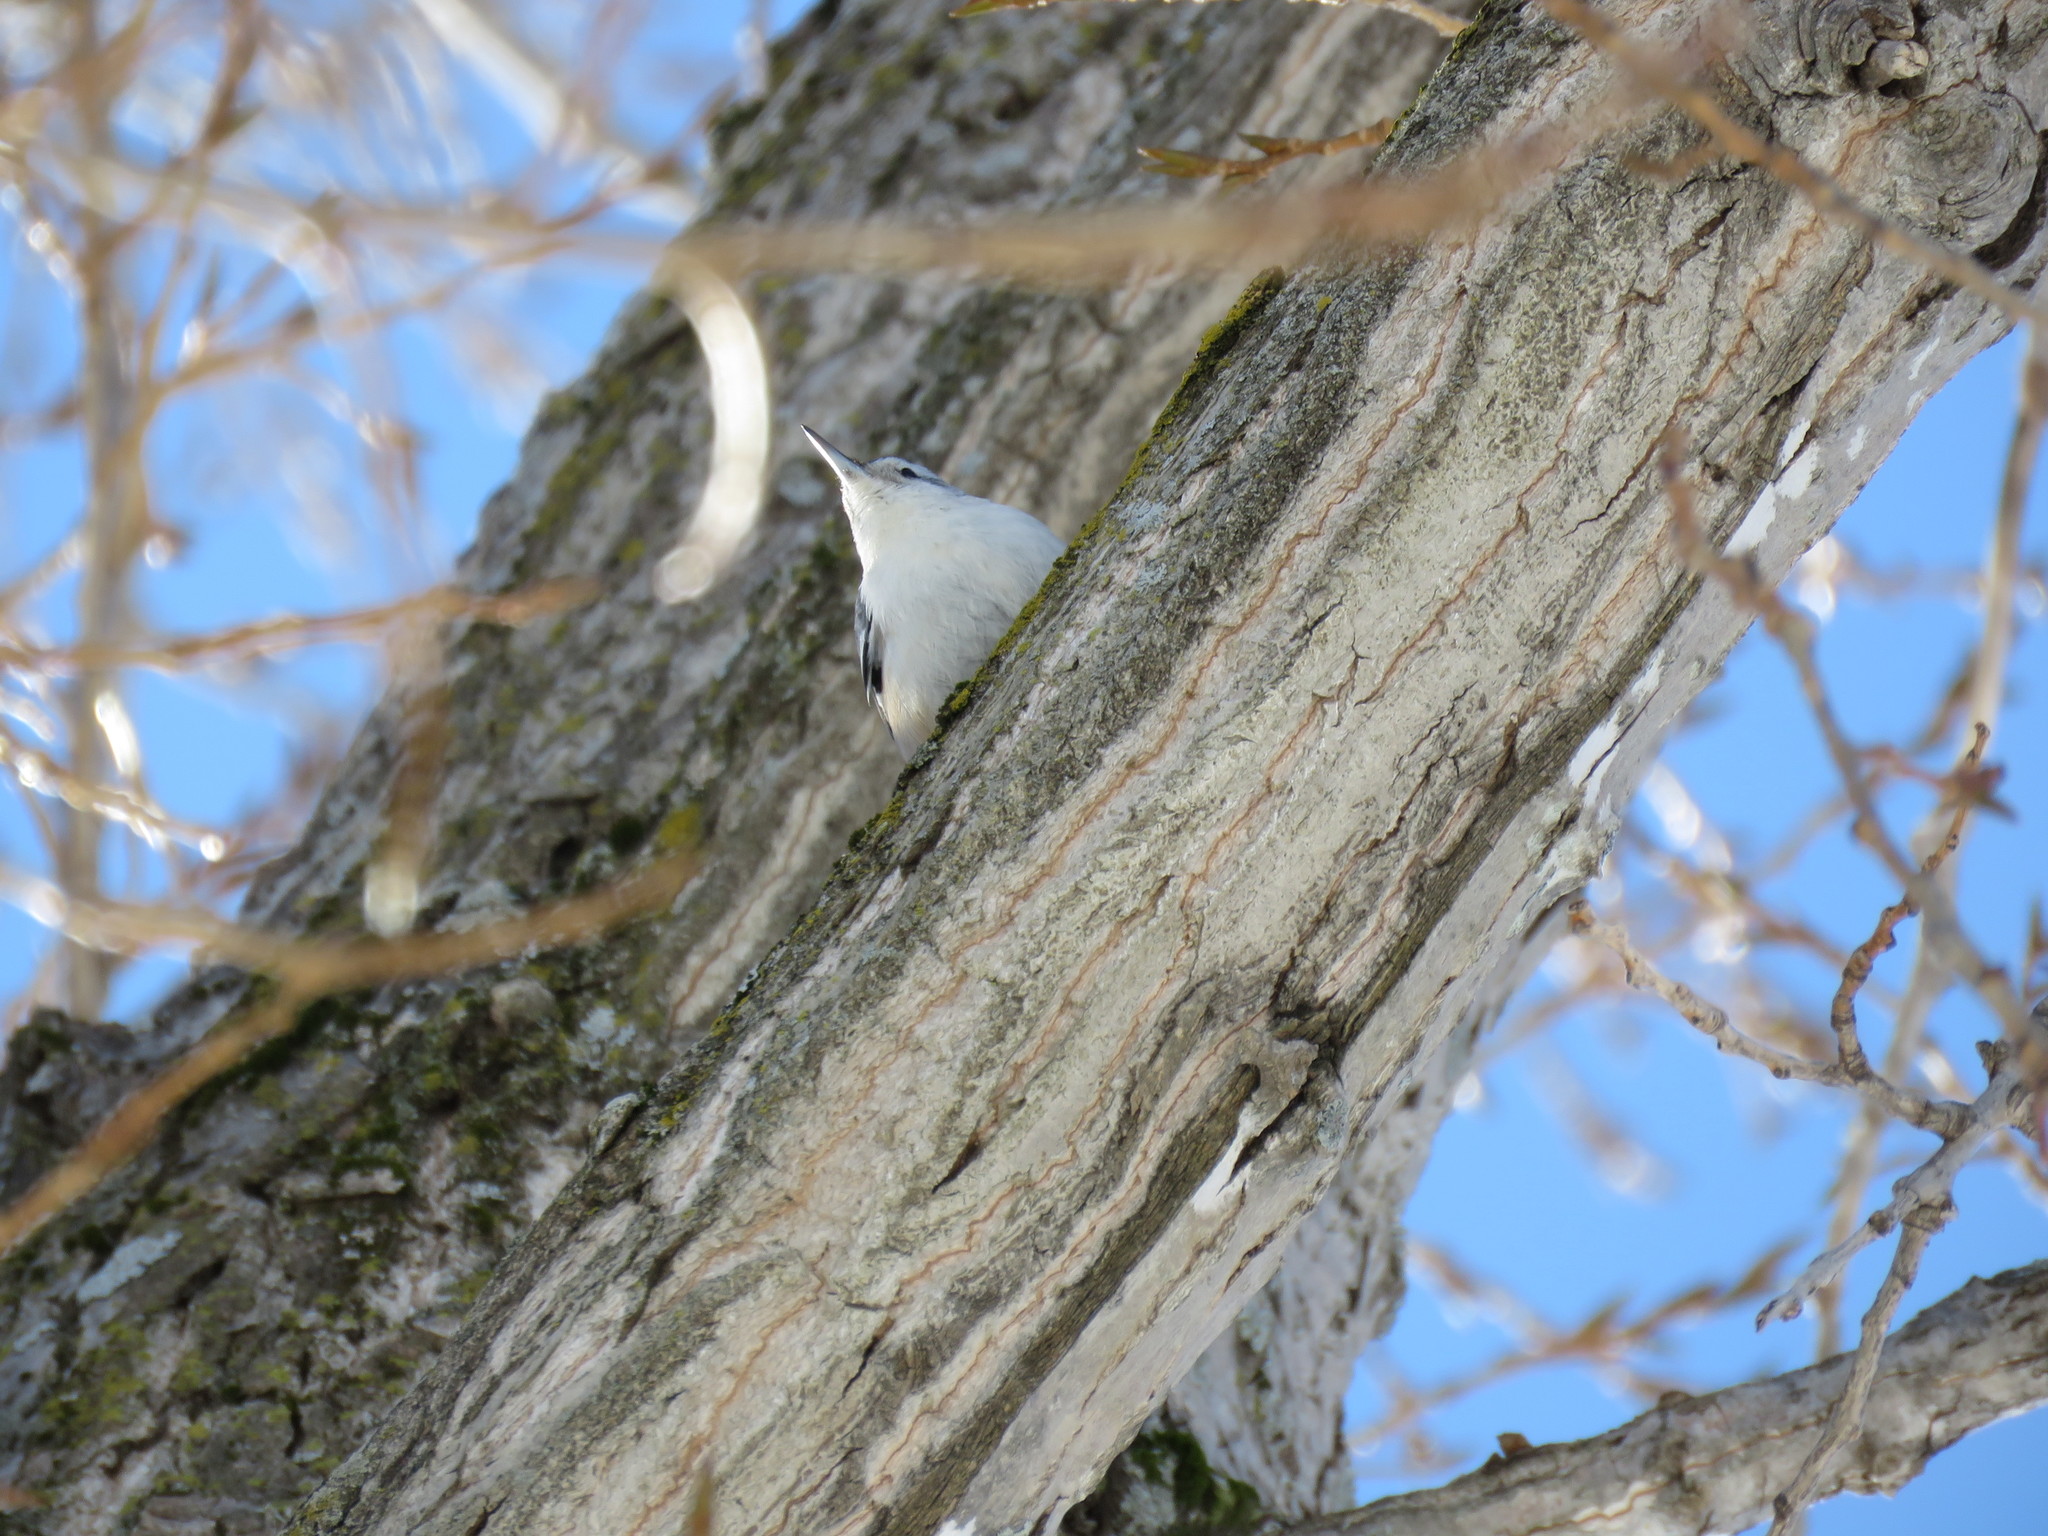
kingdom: Animalia
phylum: Chordata
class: Aves
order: Passeriformes
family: Sittidae
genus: Sitta
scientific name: Sitta carolinensis
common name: White-breasted nuthatch
